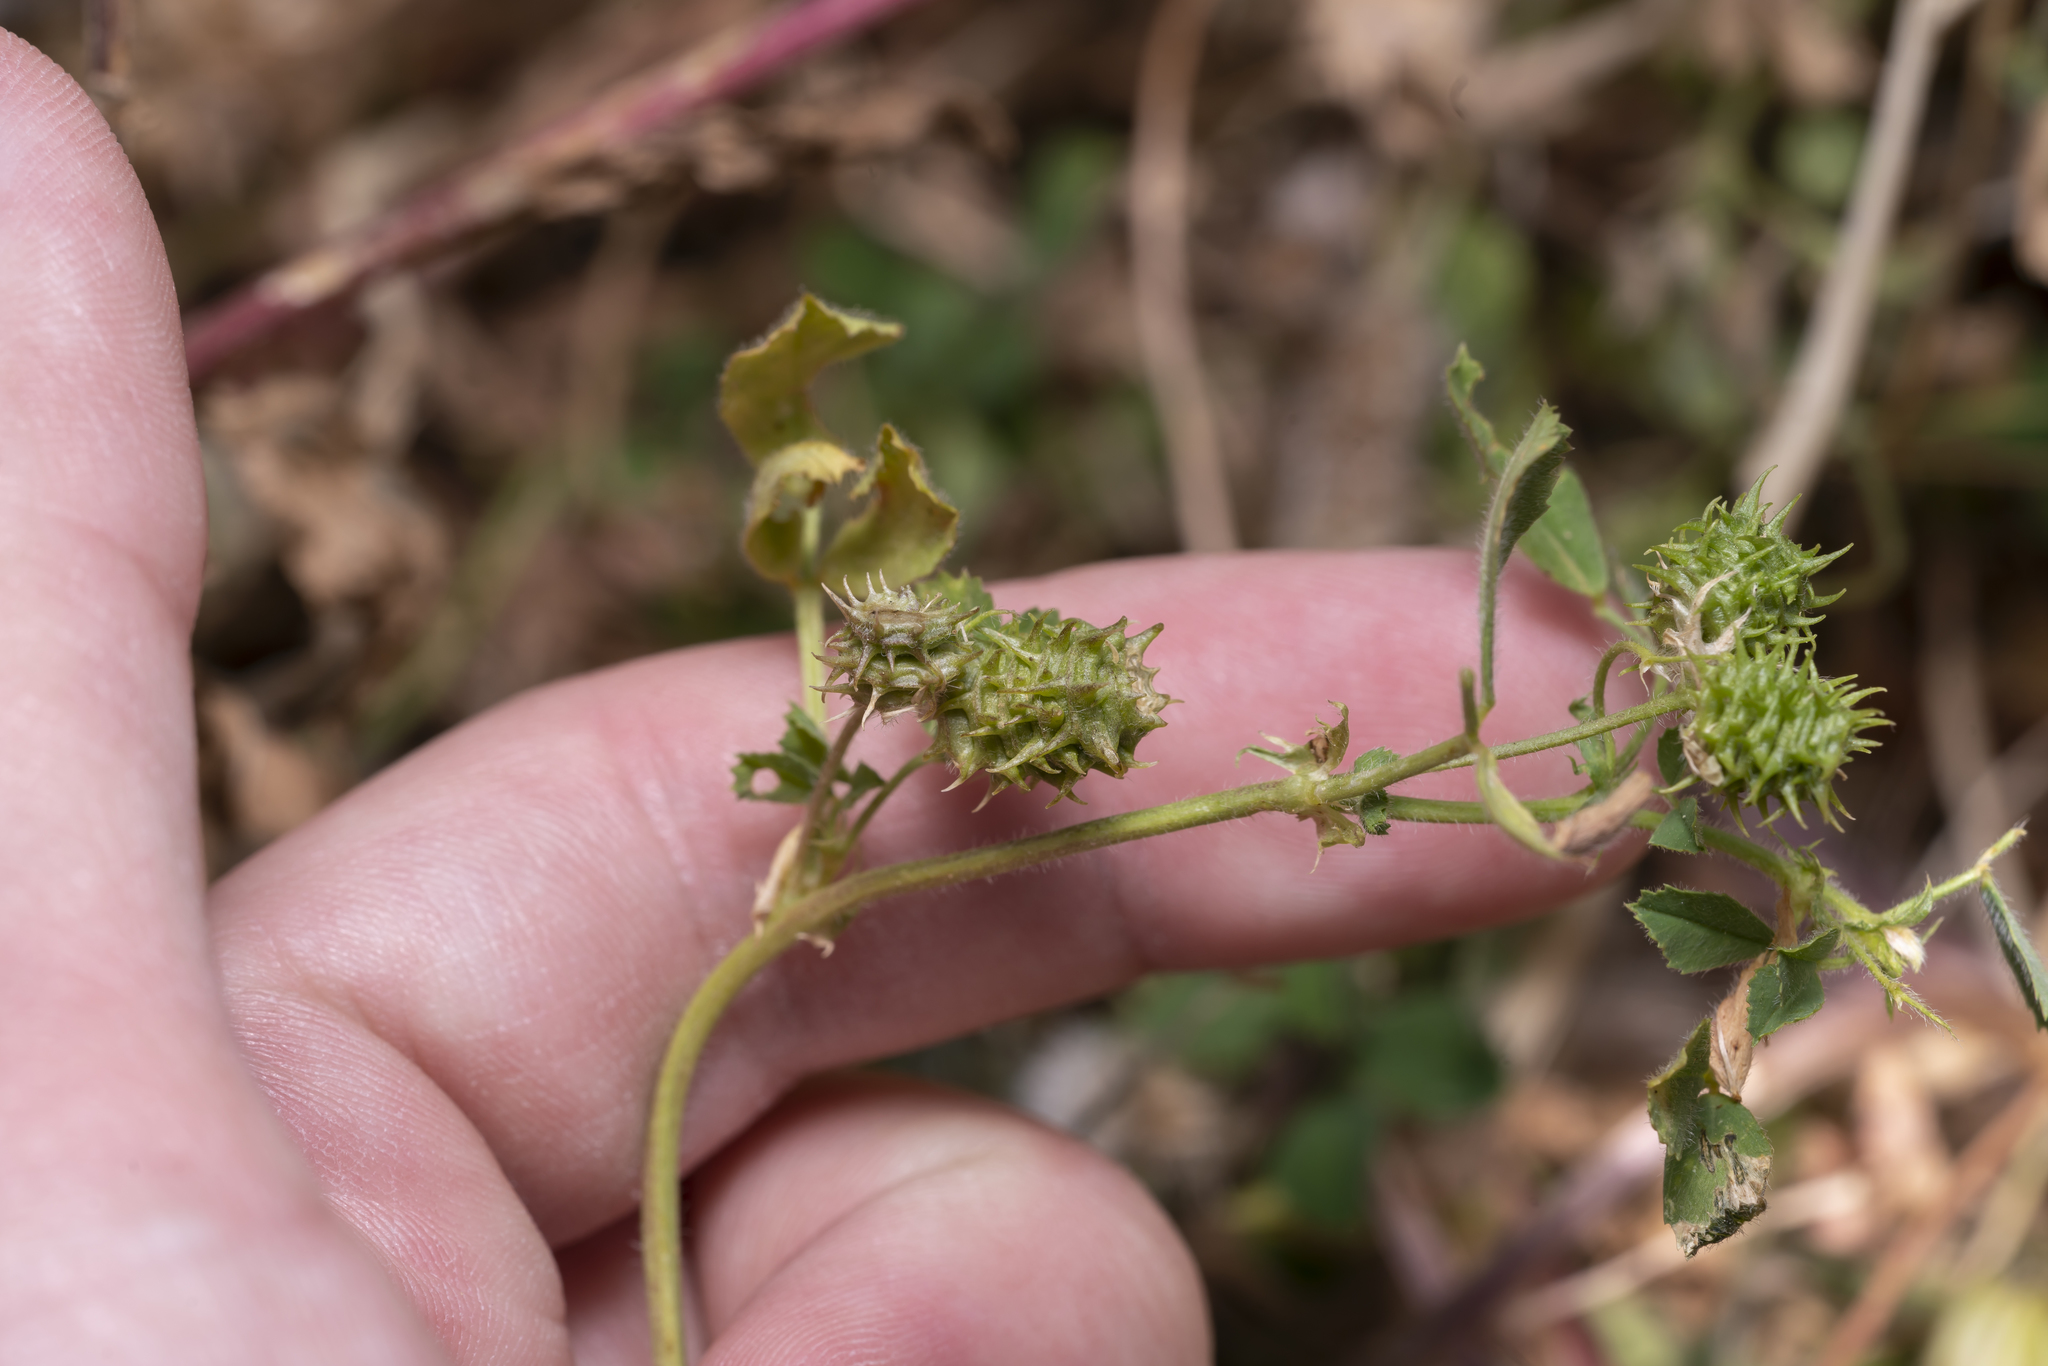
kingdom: Plantae
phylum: Tracheophyta
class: Magnoliopsida
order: Fabales
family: Fabaceae
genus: Medicago
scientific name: Medicago truncatula
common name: Strong-spined medick
